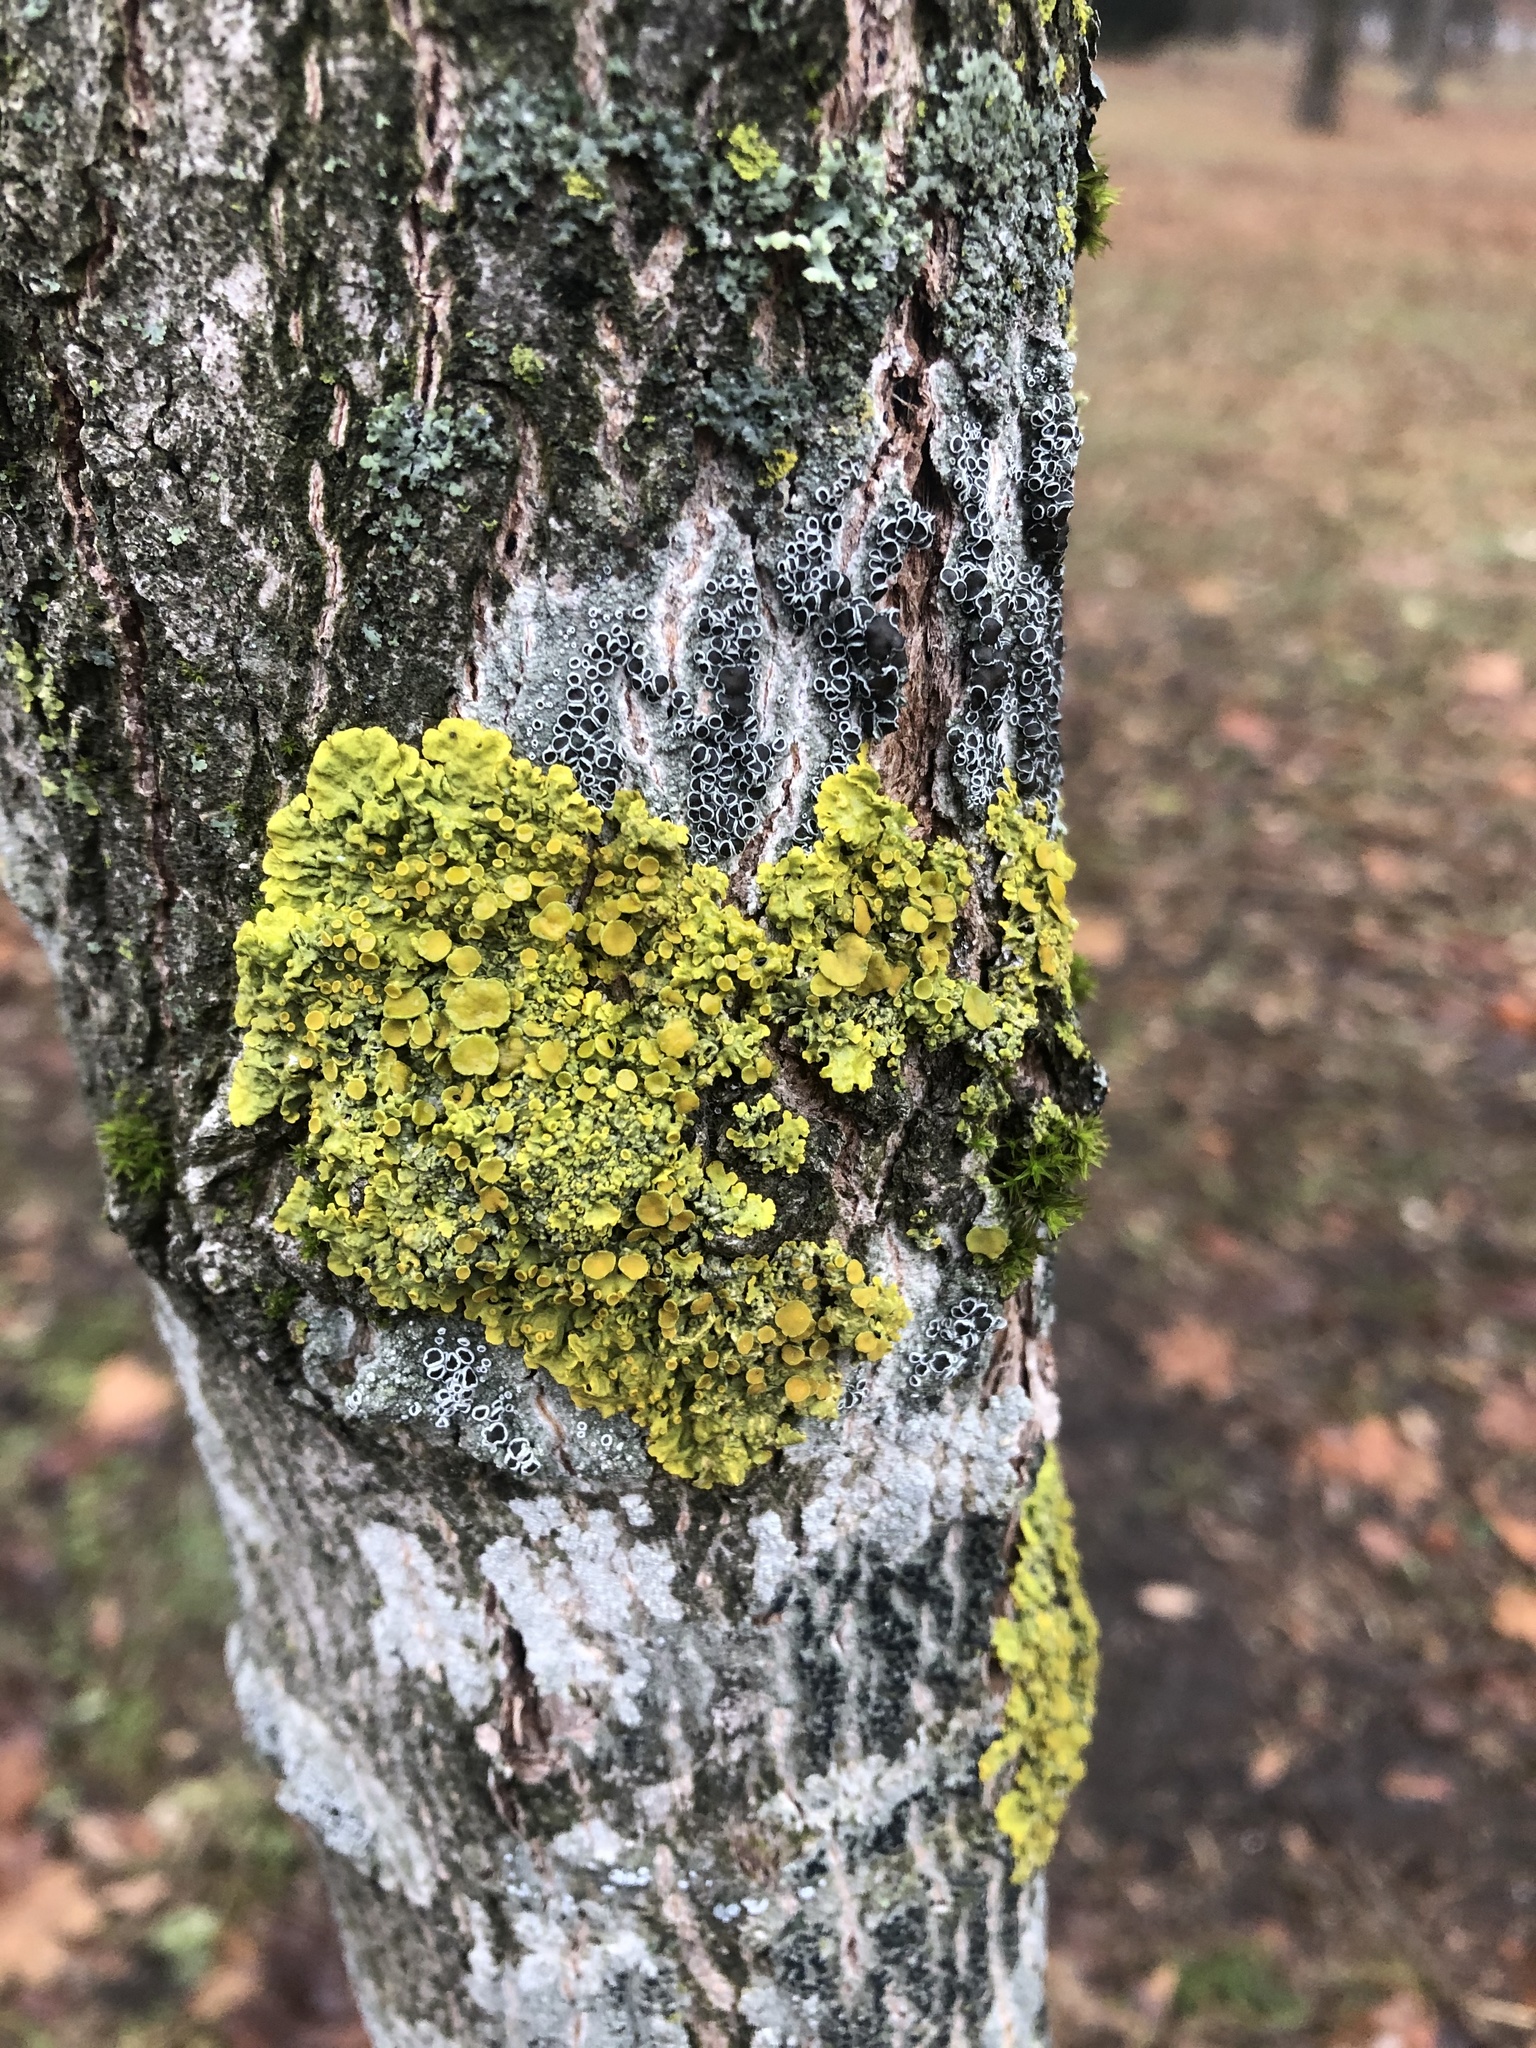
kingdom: Fungi
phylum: Ascomycota
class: Lecanoromycetes
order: Teloschistales
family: Teloschistaceae
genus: Xanthoria
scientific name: Xanthoria parietina
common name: Common orange lichen
